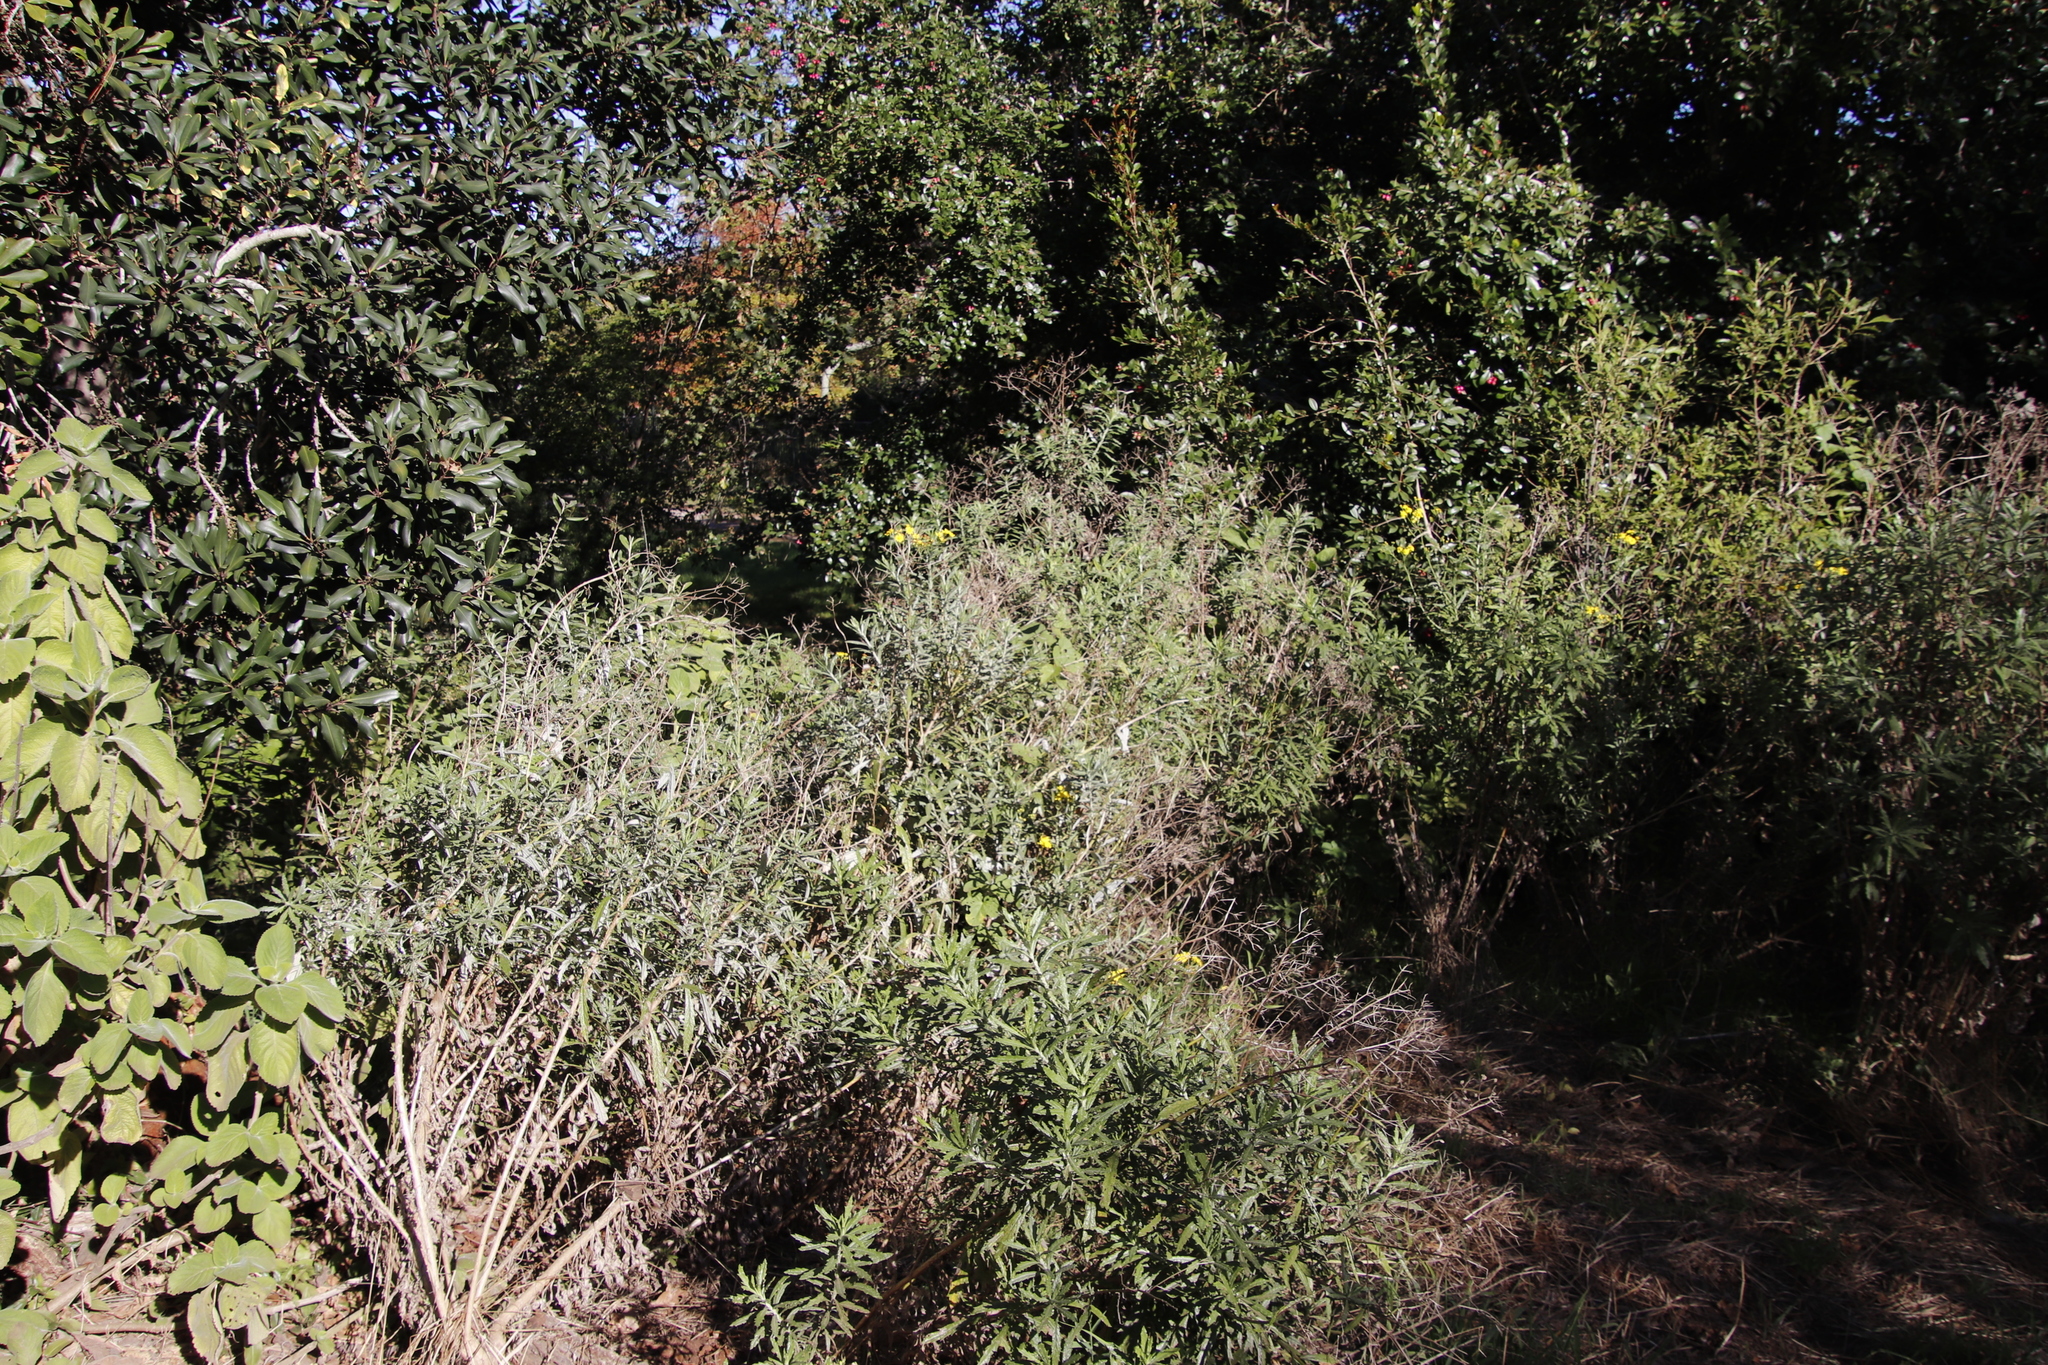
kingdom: Plantae
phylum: Tracheophyta
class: Magnoliopsida
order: Asterales
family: Asteraceae
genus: Senecio
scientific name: Senecio pterophorus
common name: Shoddy ragwort
